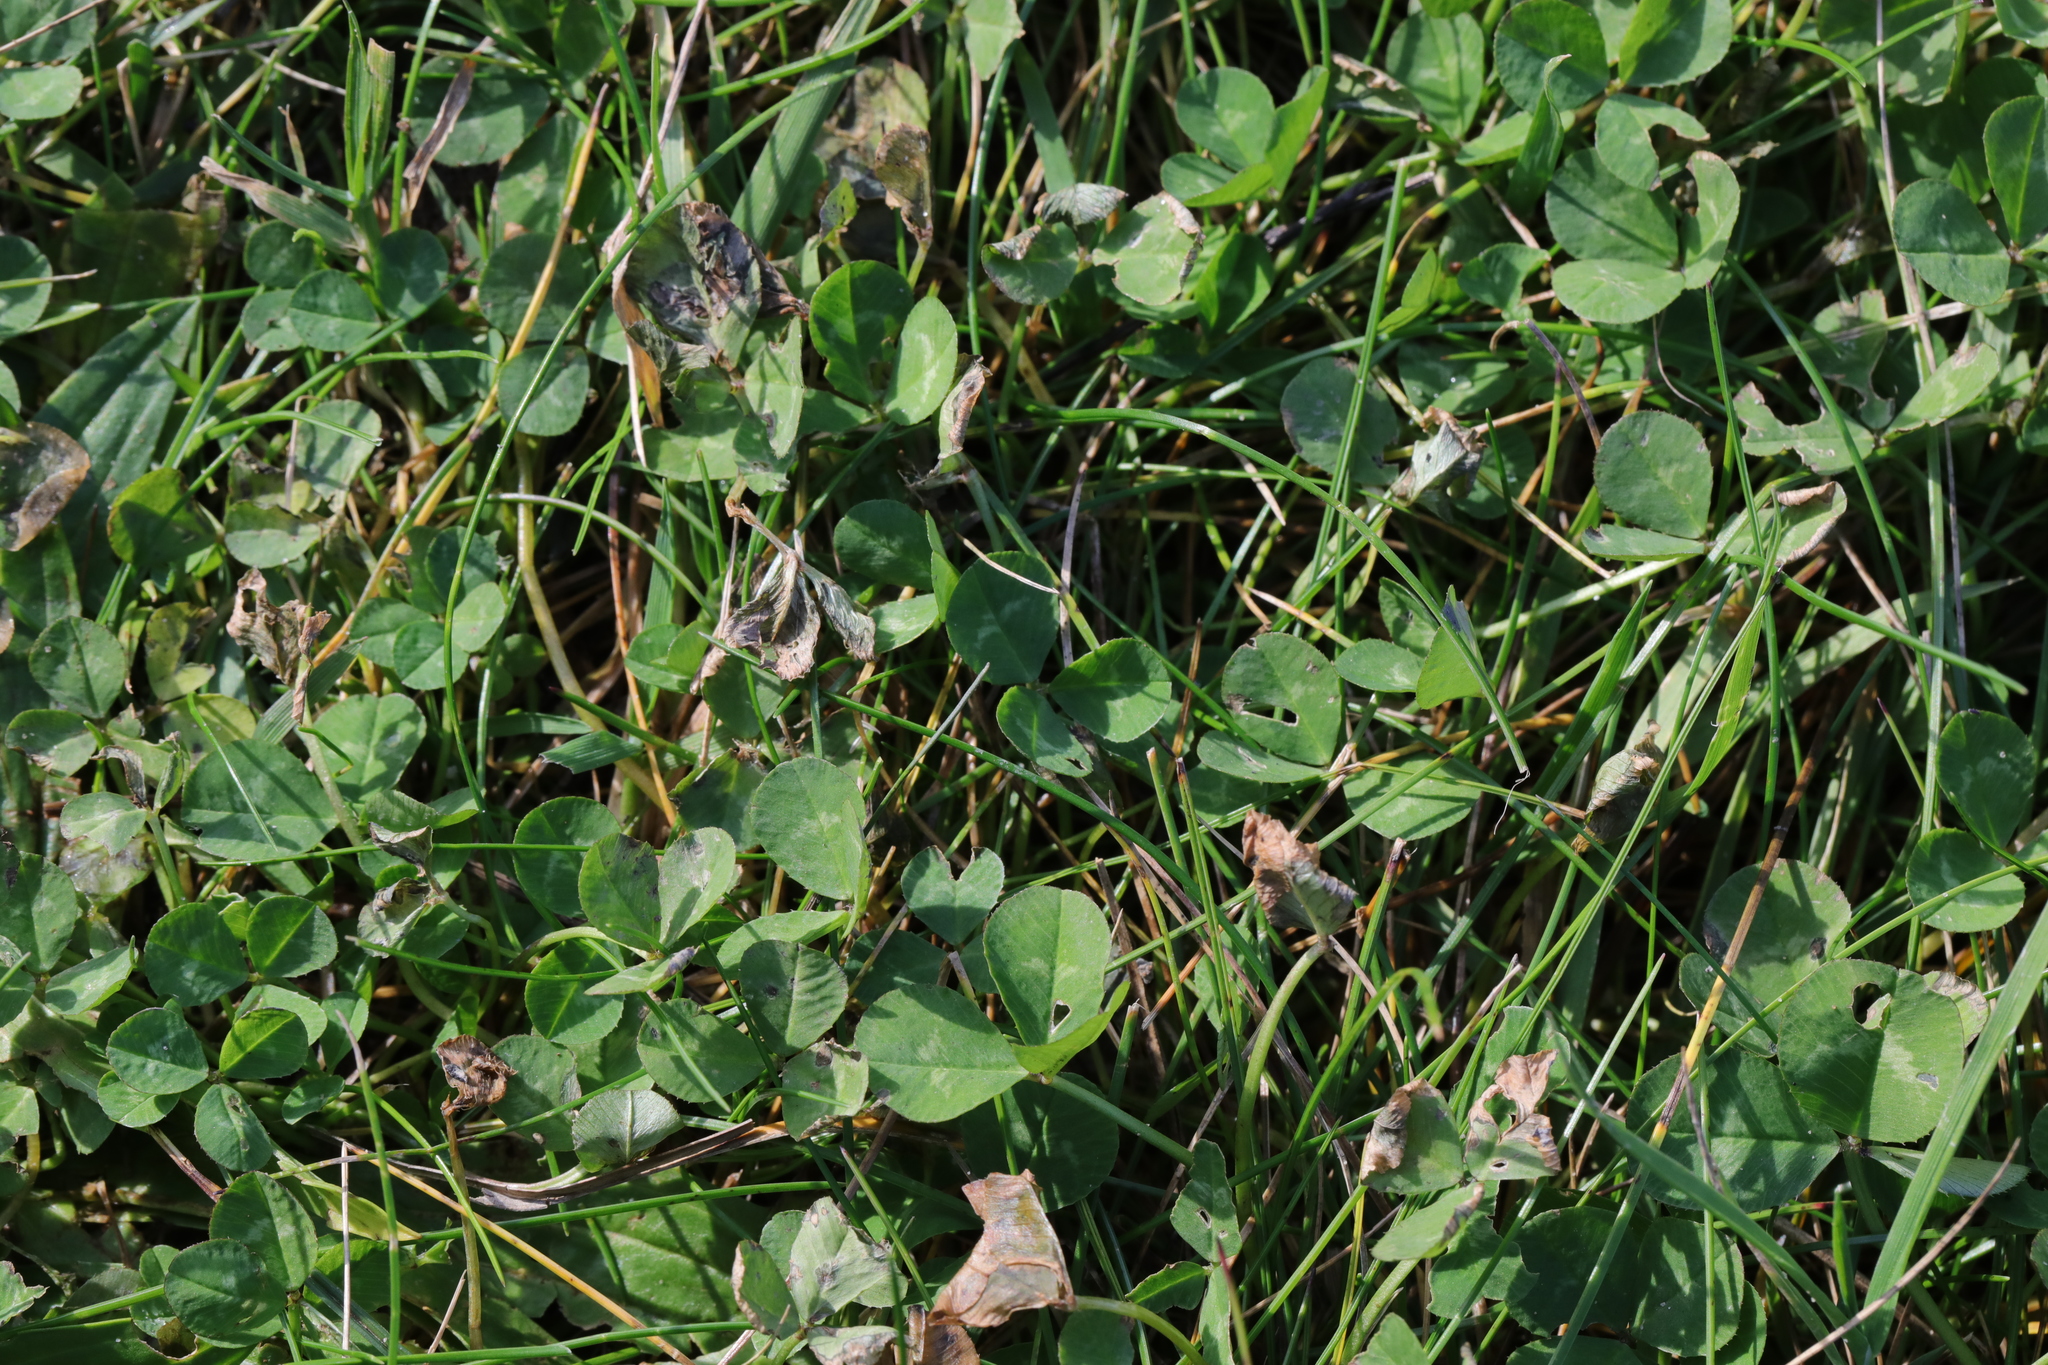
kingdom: Plantae
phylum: Tracheophyta
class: Magnoliopsida
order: Fabales
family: Fabaceae
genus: Trifolium
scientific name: Trifolium repens
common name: White clover
